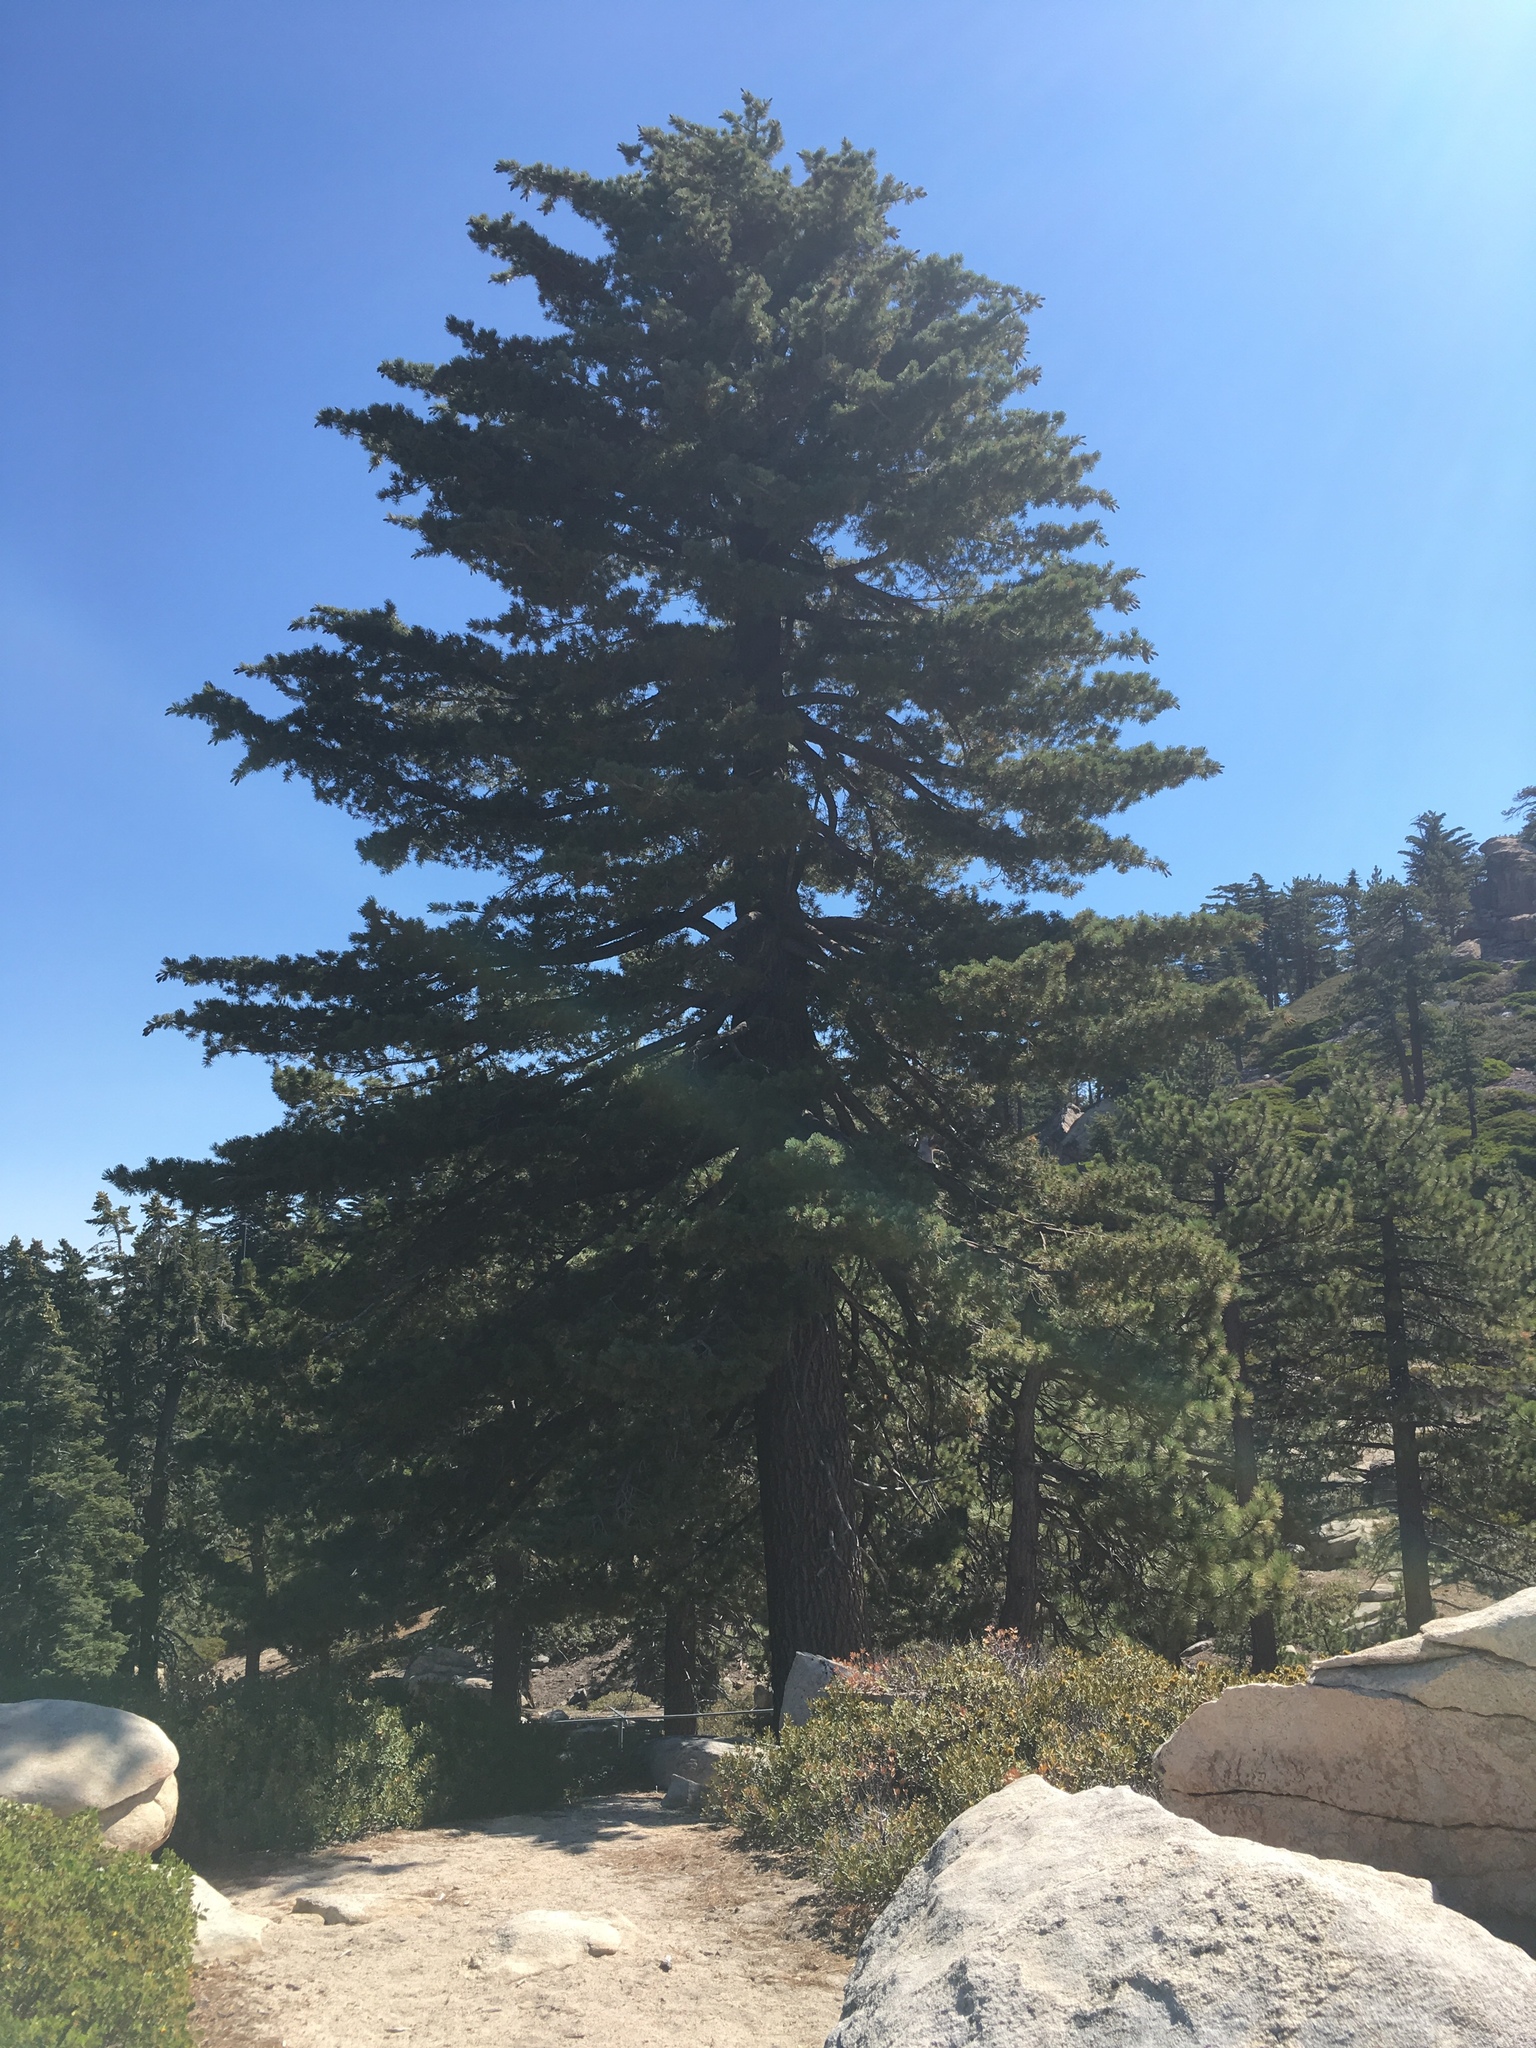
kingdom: Plantae
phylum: Tracheophyta
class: Pinopsida
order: Pinales
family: Pinaceae
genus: Pinus
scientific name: Pinus lambertiana
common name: Sugar pine
